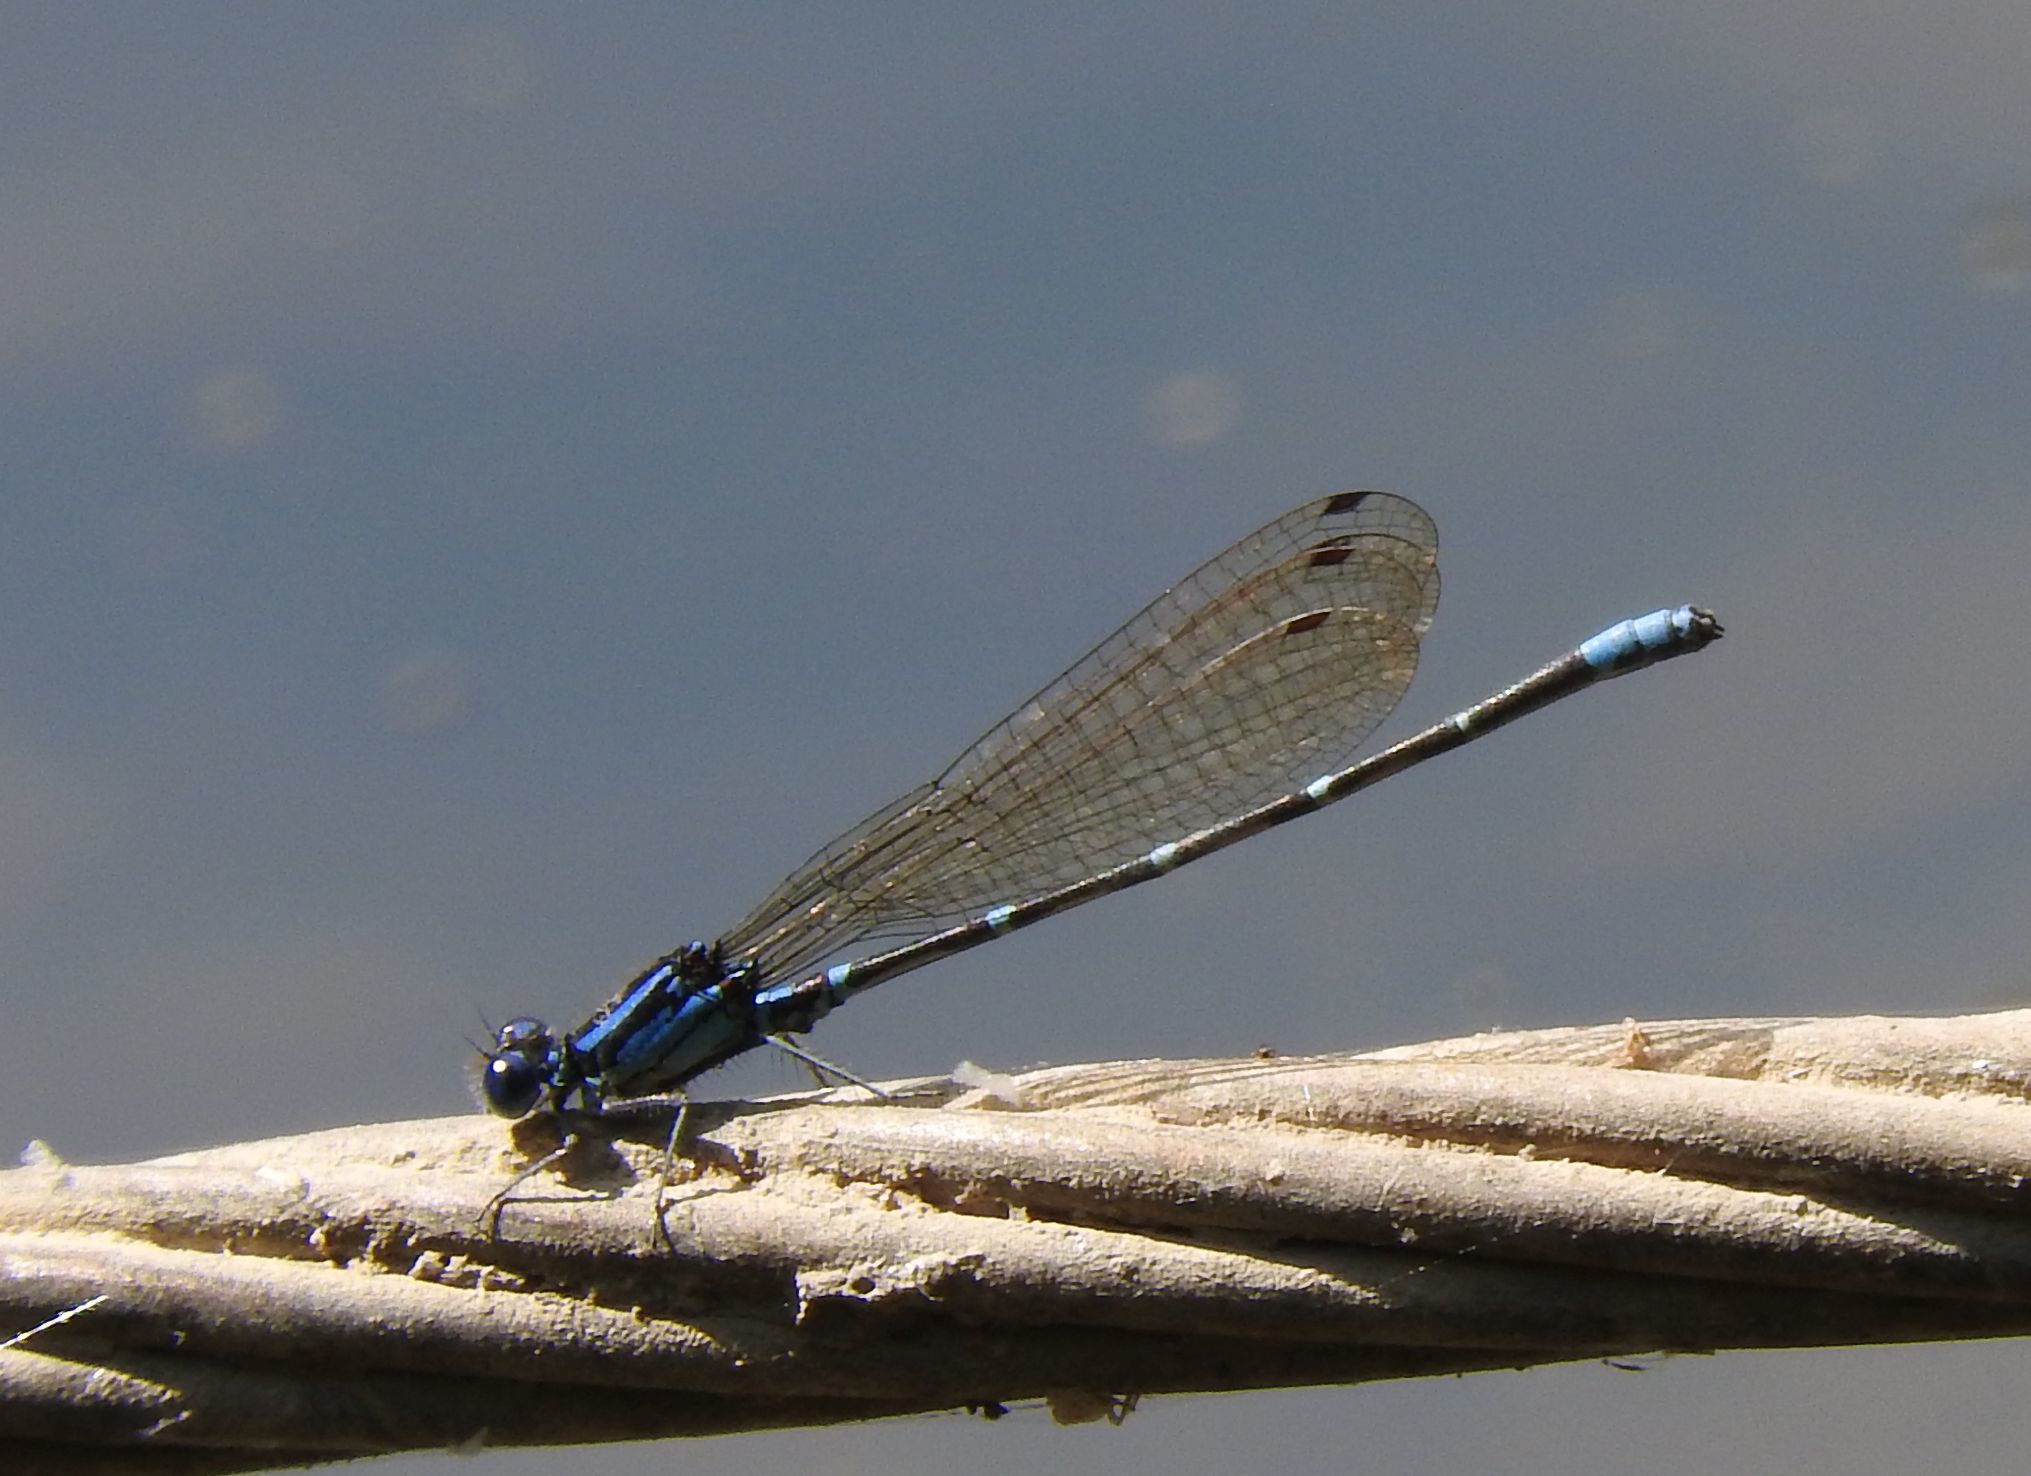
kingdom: Animalia
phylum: Arthropoda
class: Insecta
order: Odonata
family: Coenagrionidae
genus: Argia
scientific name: Argia sedula
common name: Blue-ringed dancer
